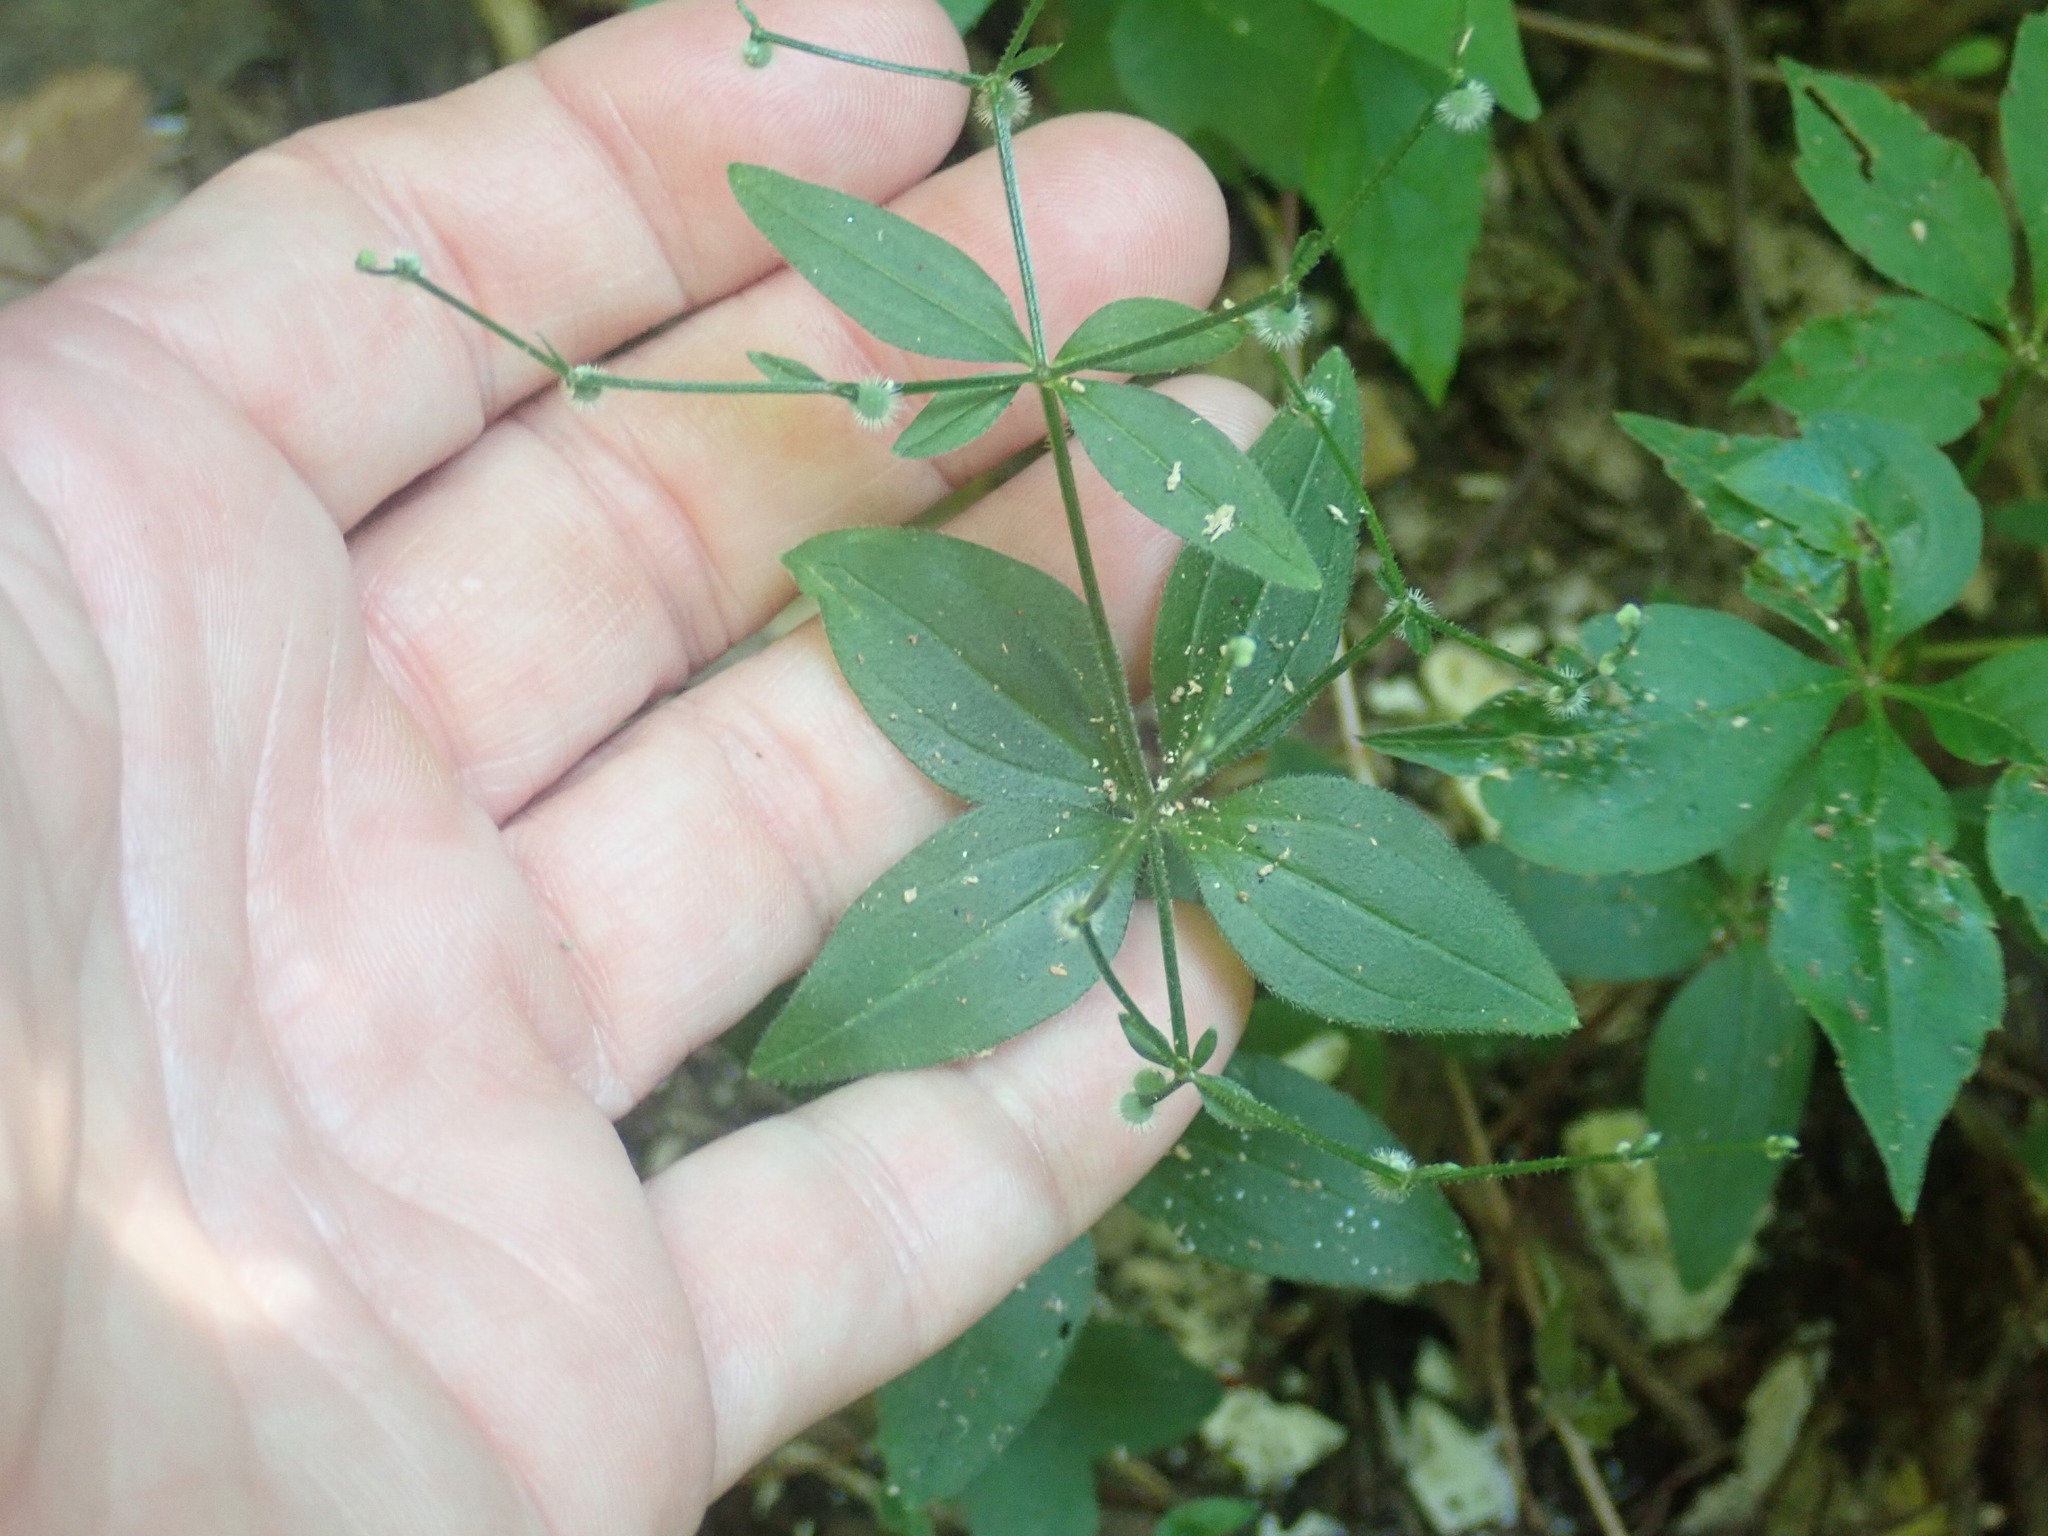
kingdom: Plantae
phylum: Tracheophyta
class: Magnoliopsida
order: Gentianales
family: Rubiaceae
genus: Galium
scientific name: Galium circaezans
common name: Forest bedstraw
